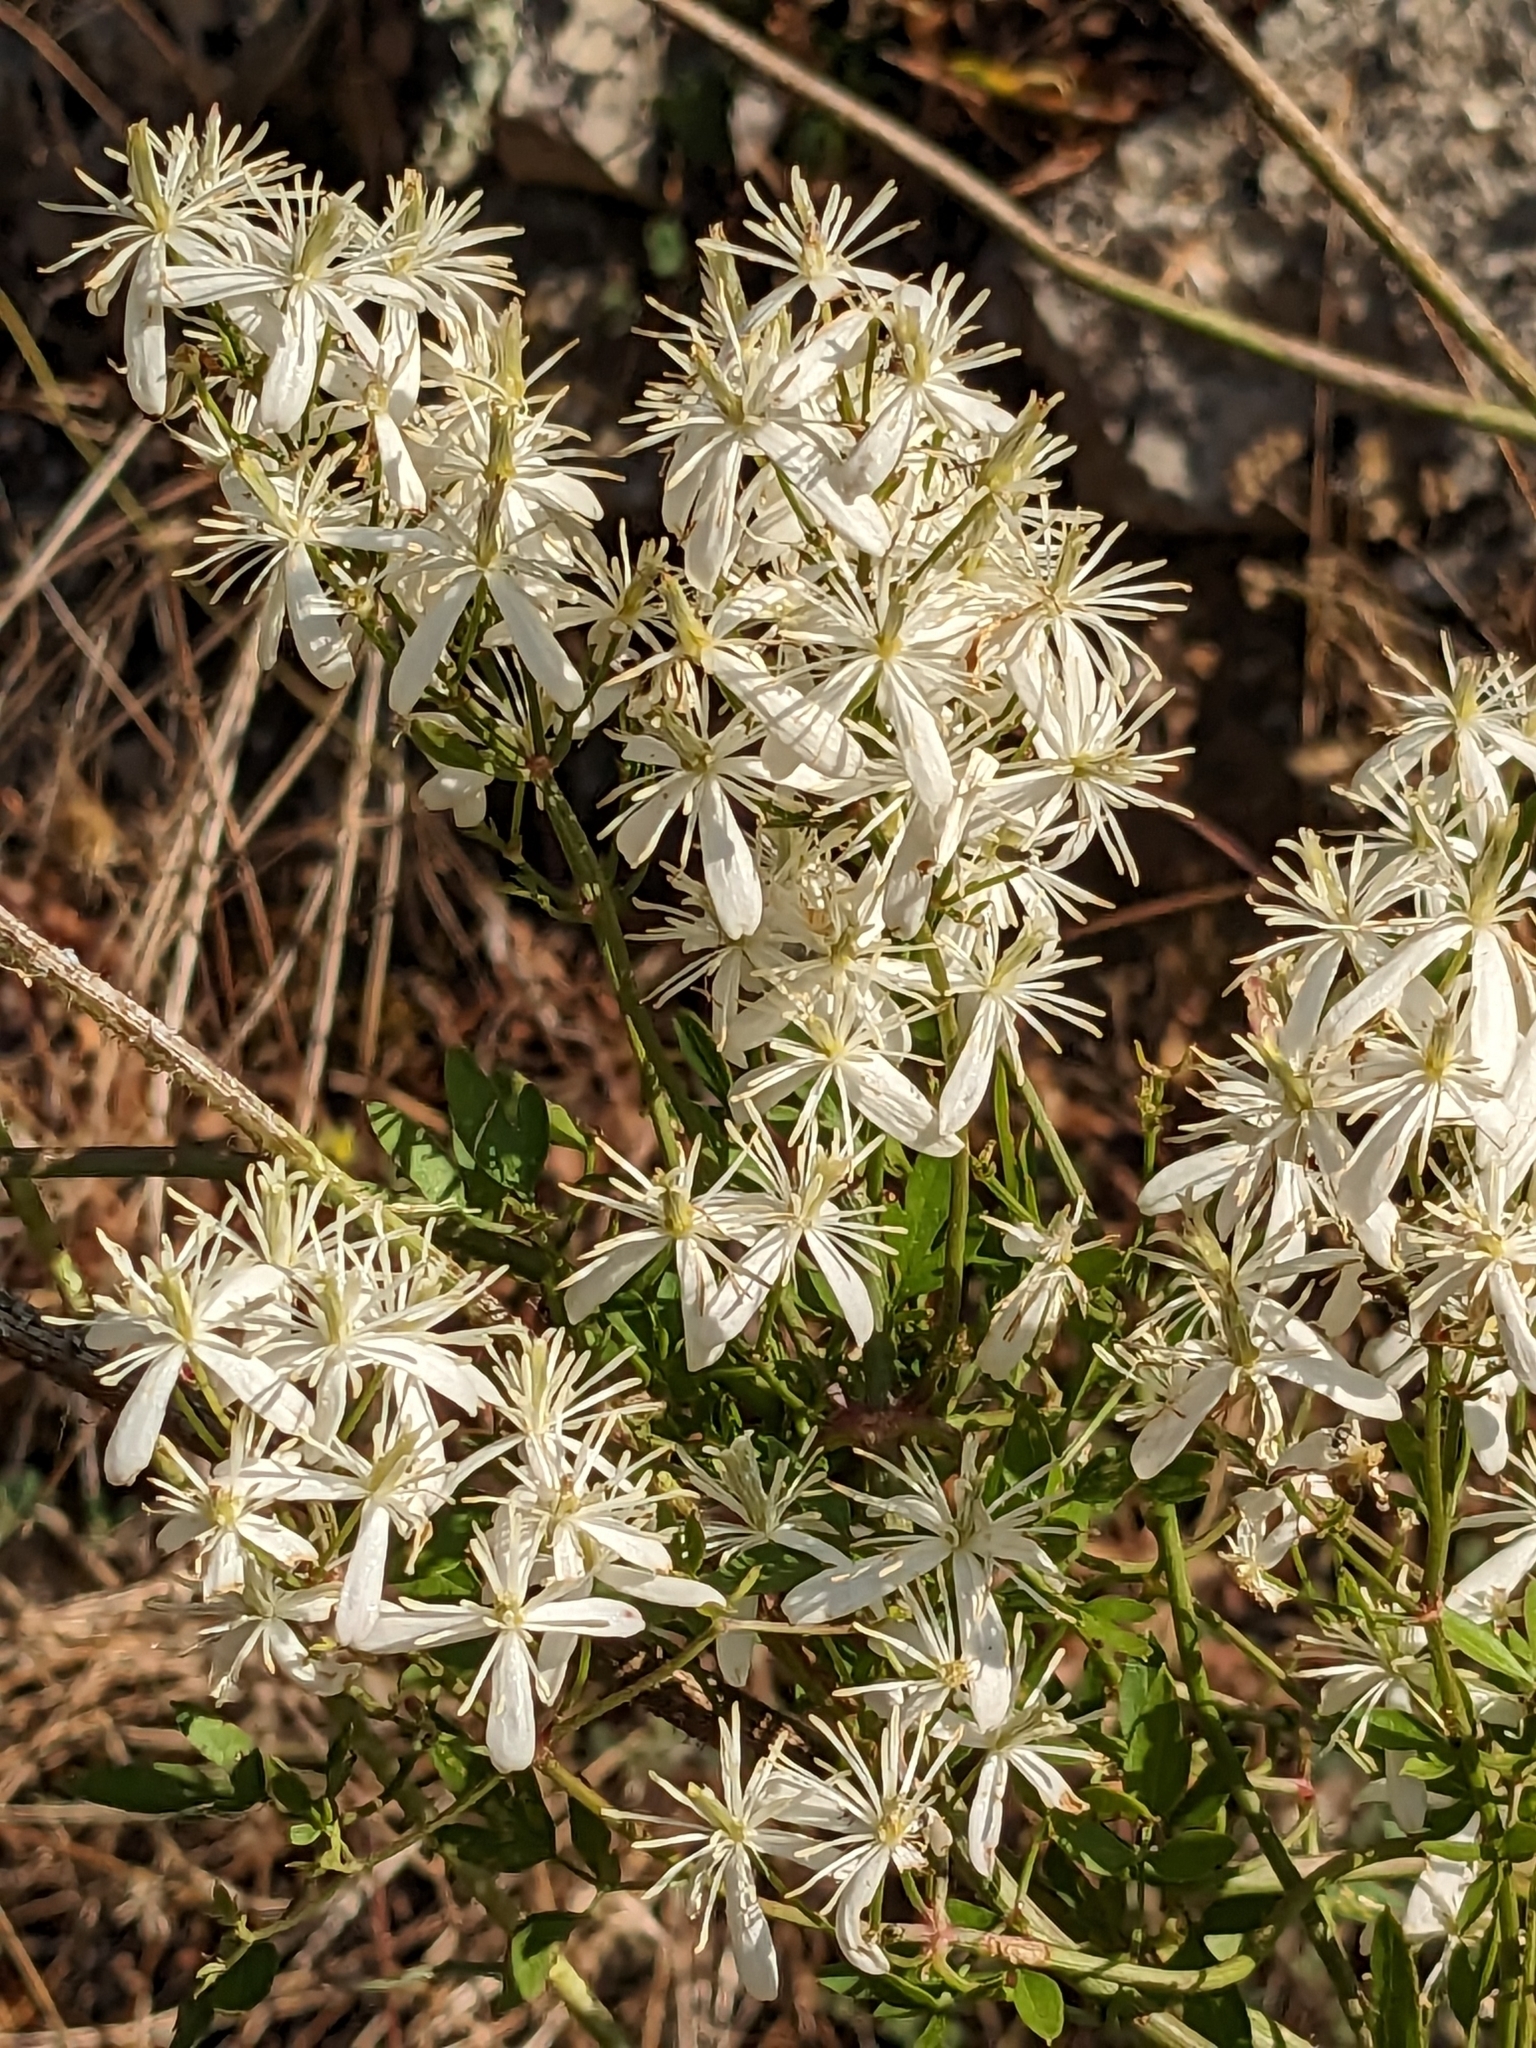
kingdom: Plantae
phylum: Tracheophyta
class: Magnoliopsida
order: Ranunculales
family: Ranunculaceae
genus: Clematis
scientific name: Clematis flammula
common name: Virgin's-bower
